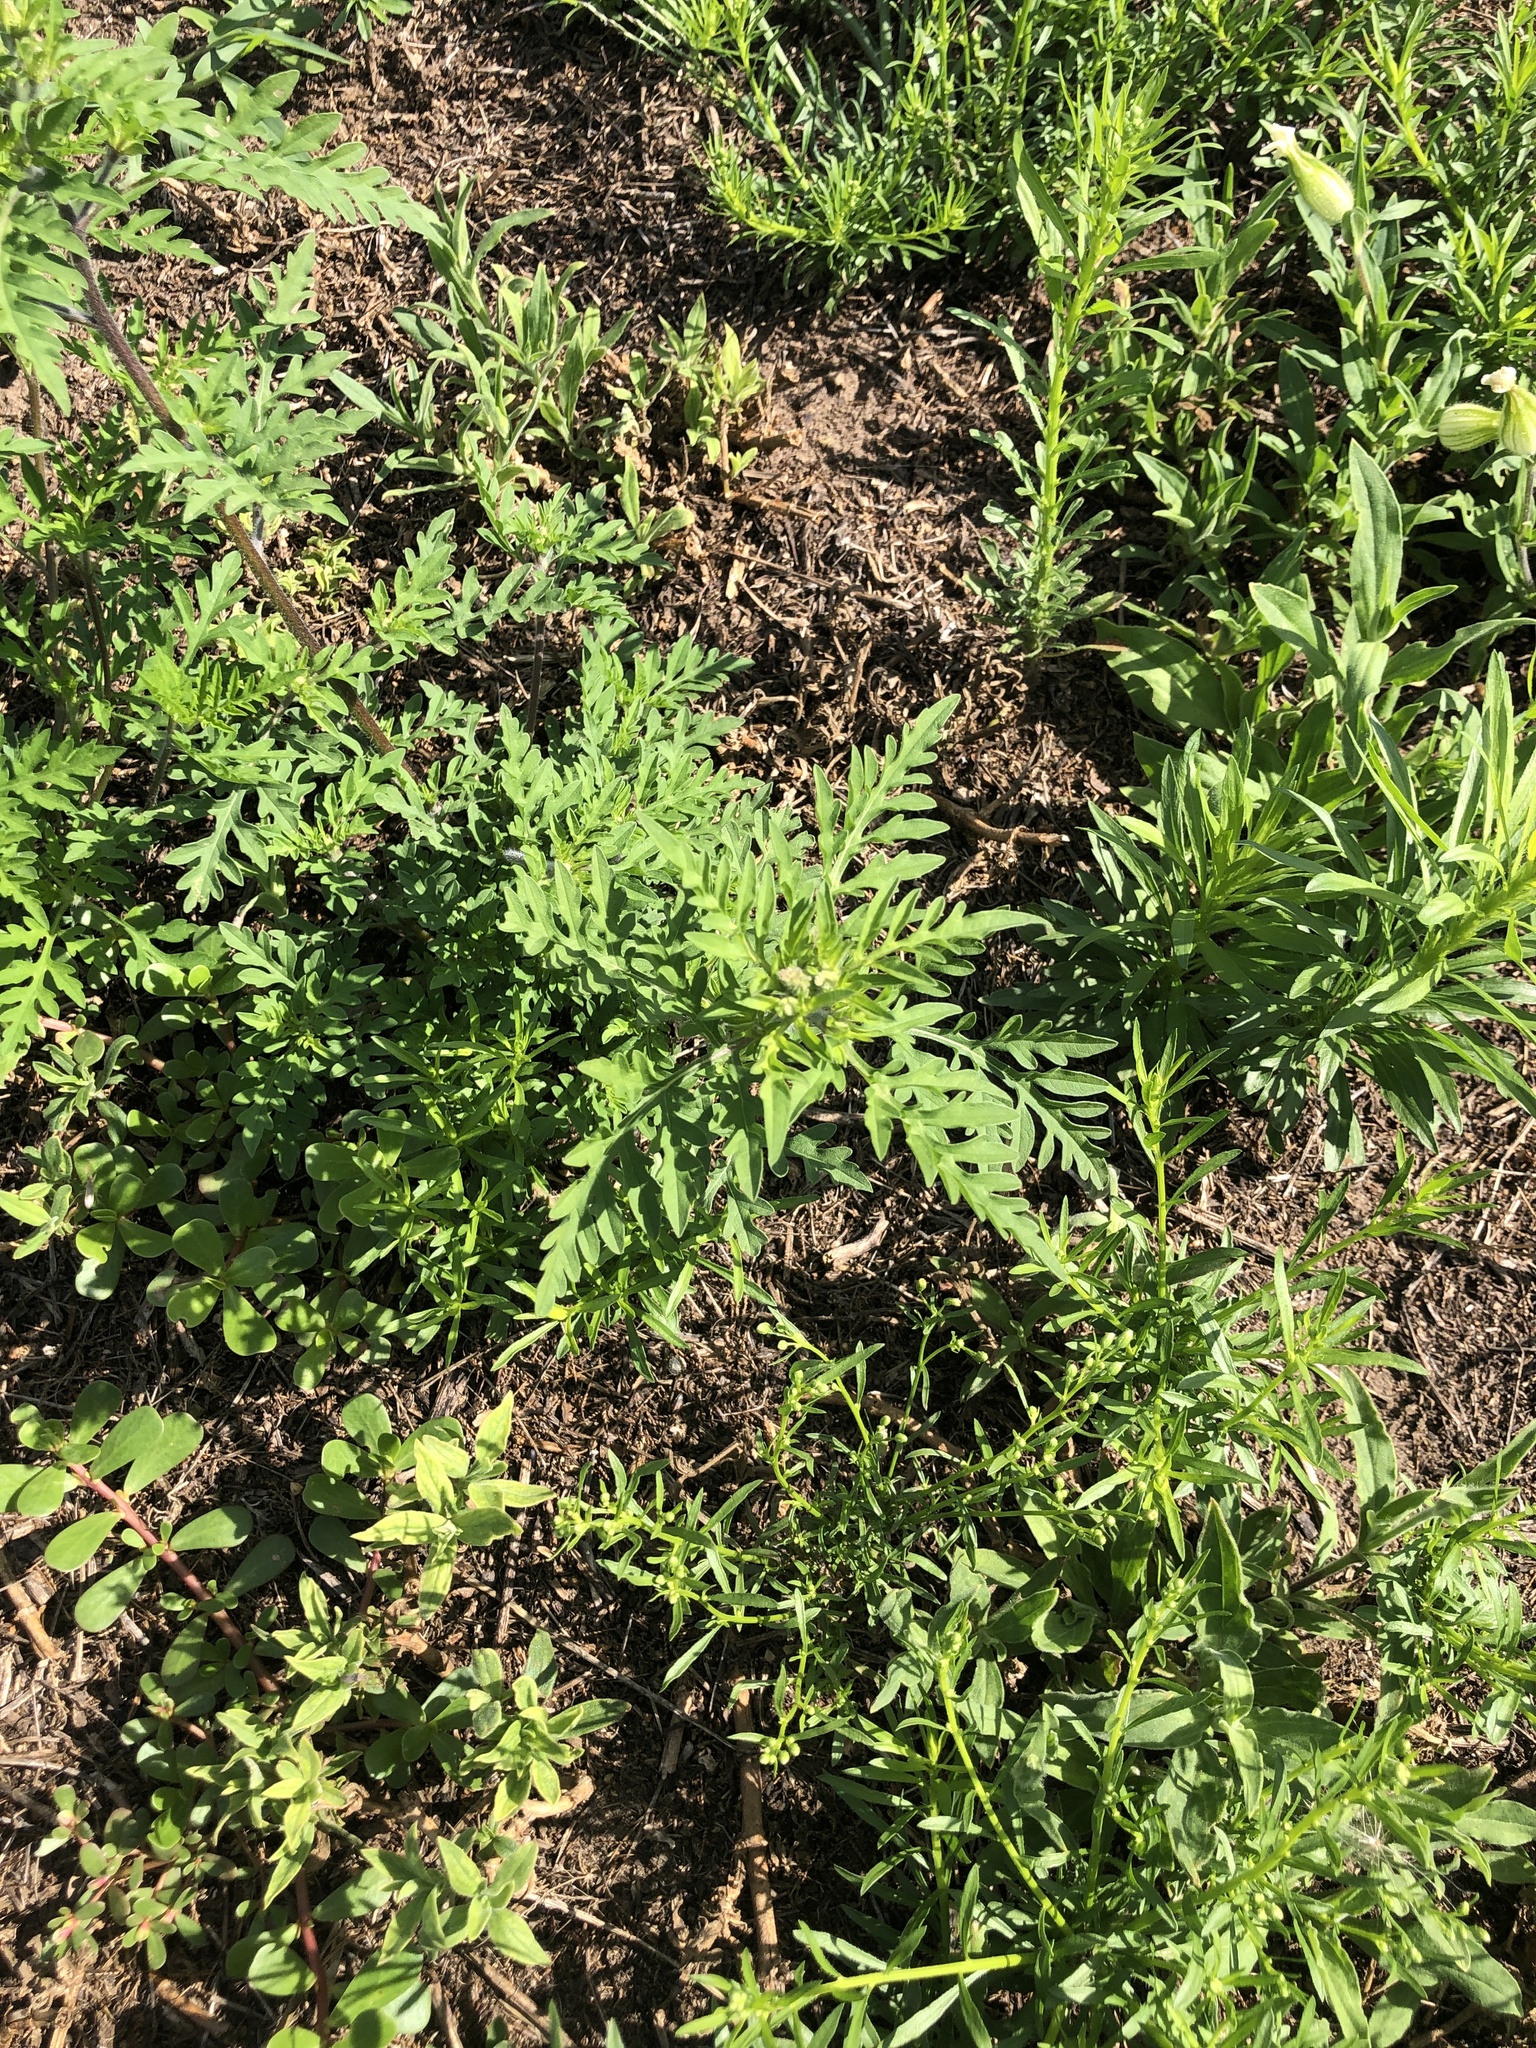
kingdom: Plantae
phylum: Tracheophyta
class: Magnoliopsida
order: Asterales
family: Asteraceae
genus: Ambrosia
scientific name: Ambrosia artemisiifolia
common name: Annual ragweed
